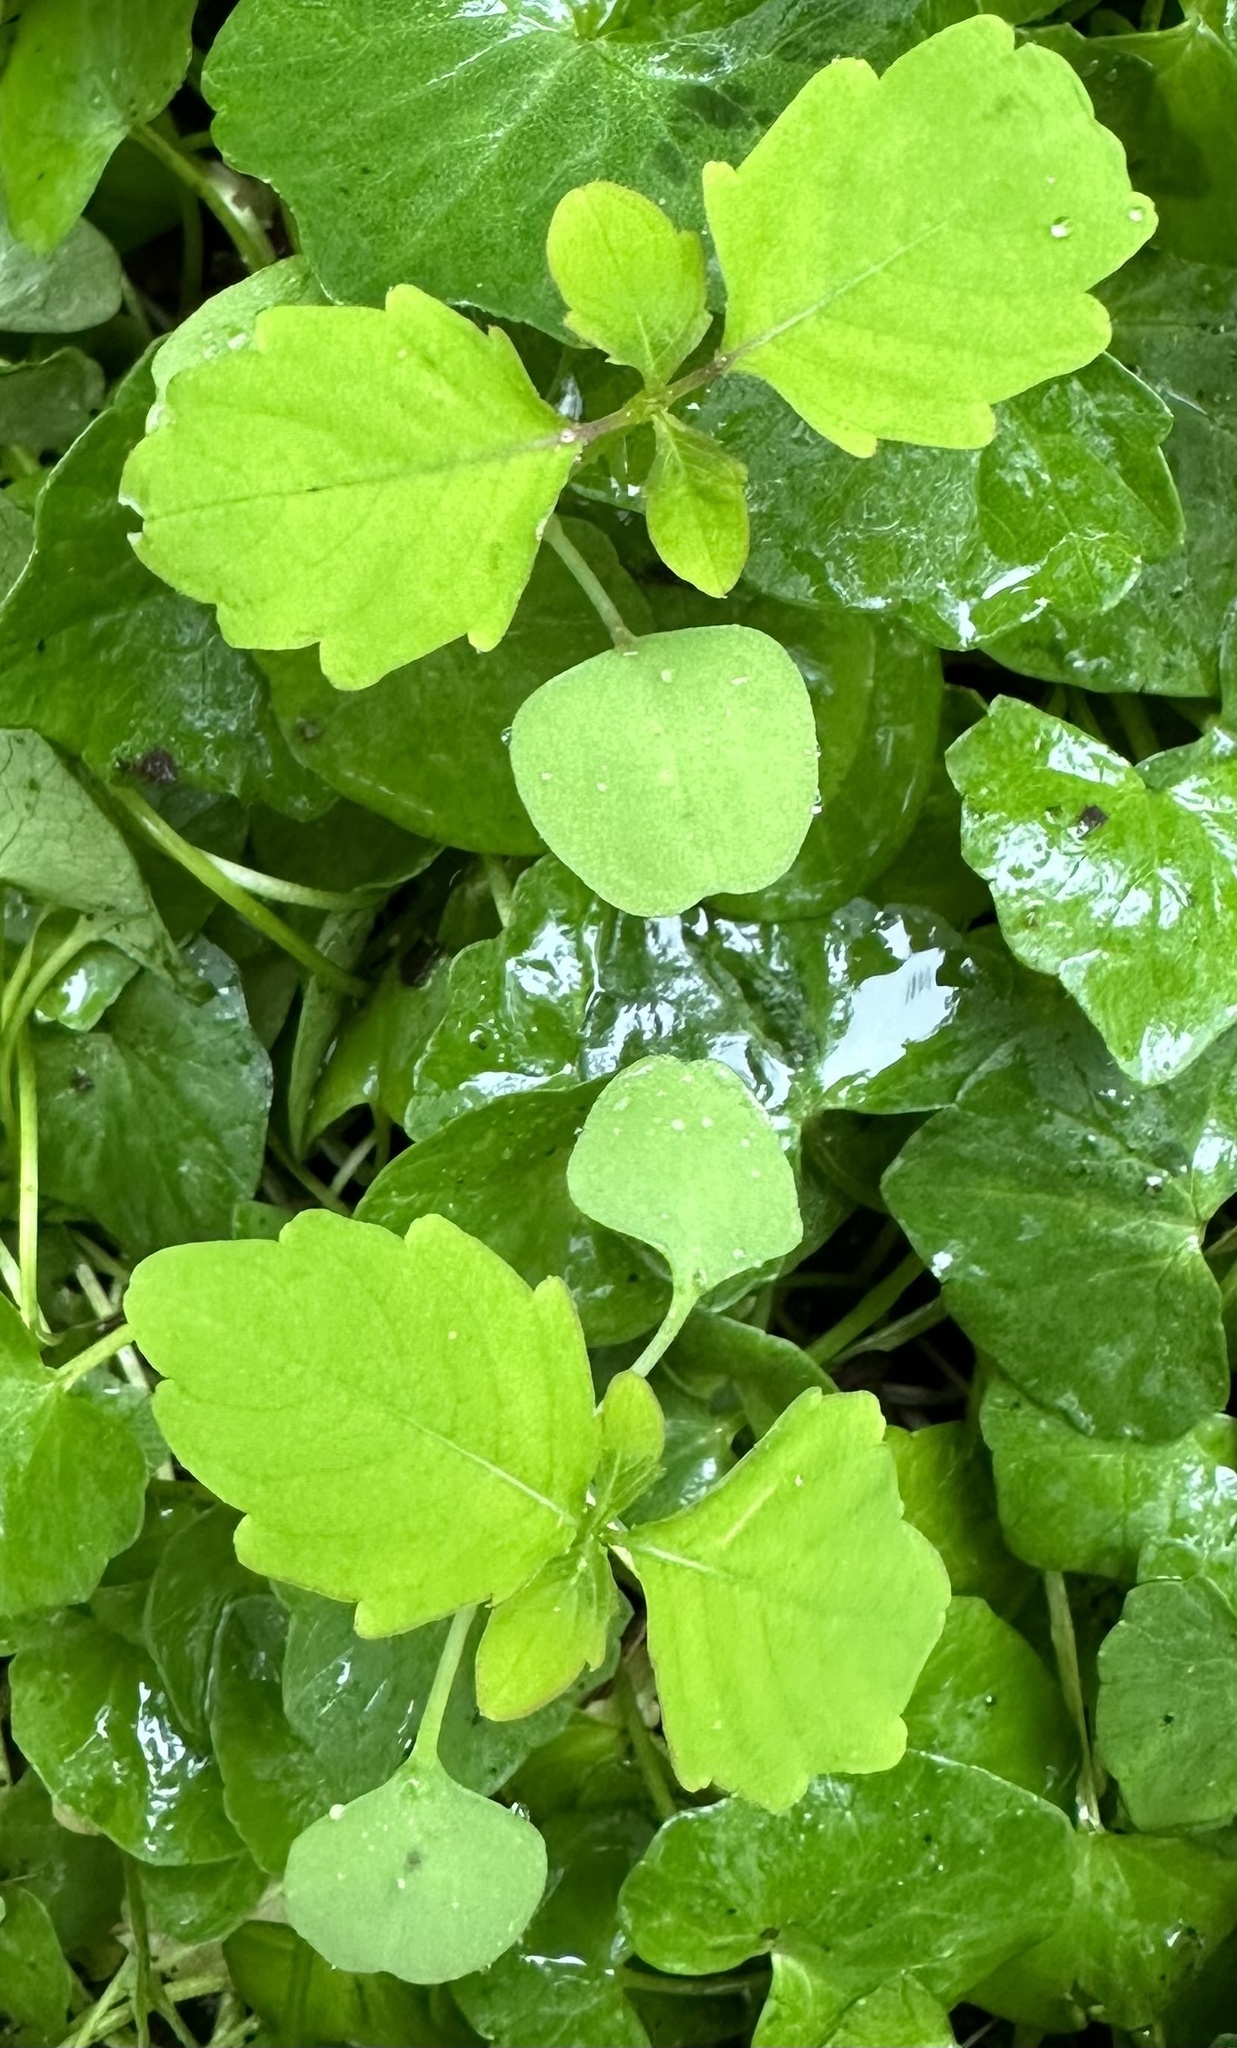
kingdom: Plantae
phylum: Tracheophyta
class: Magnoliopsida
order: Ericales
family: Balsaminaceae
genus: Impatiens
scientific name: Impatiens capensis
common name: Orange balsam
